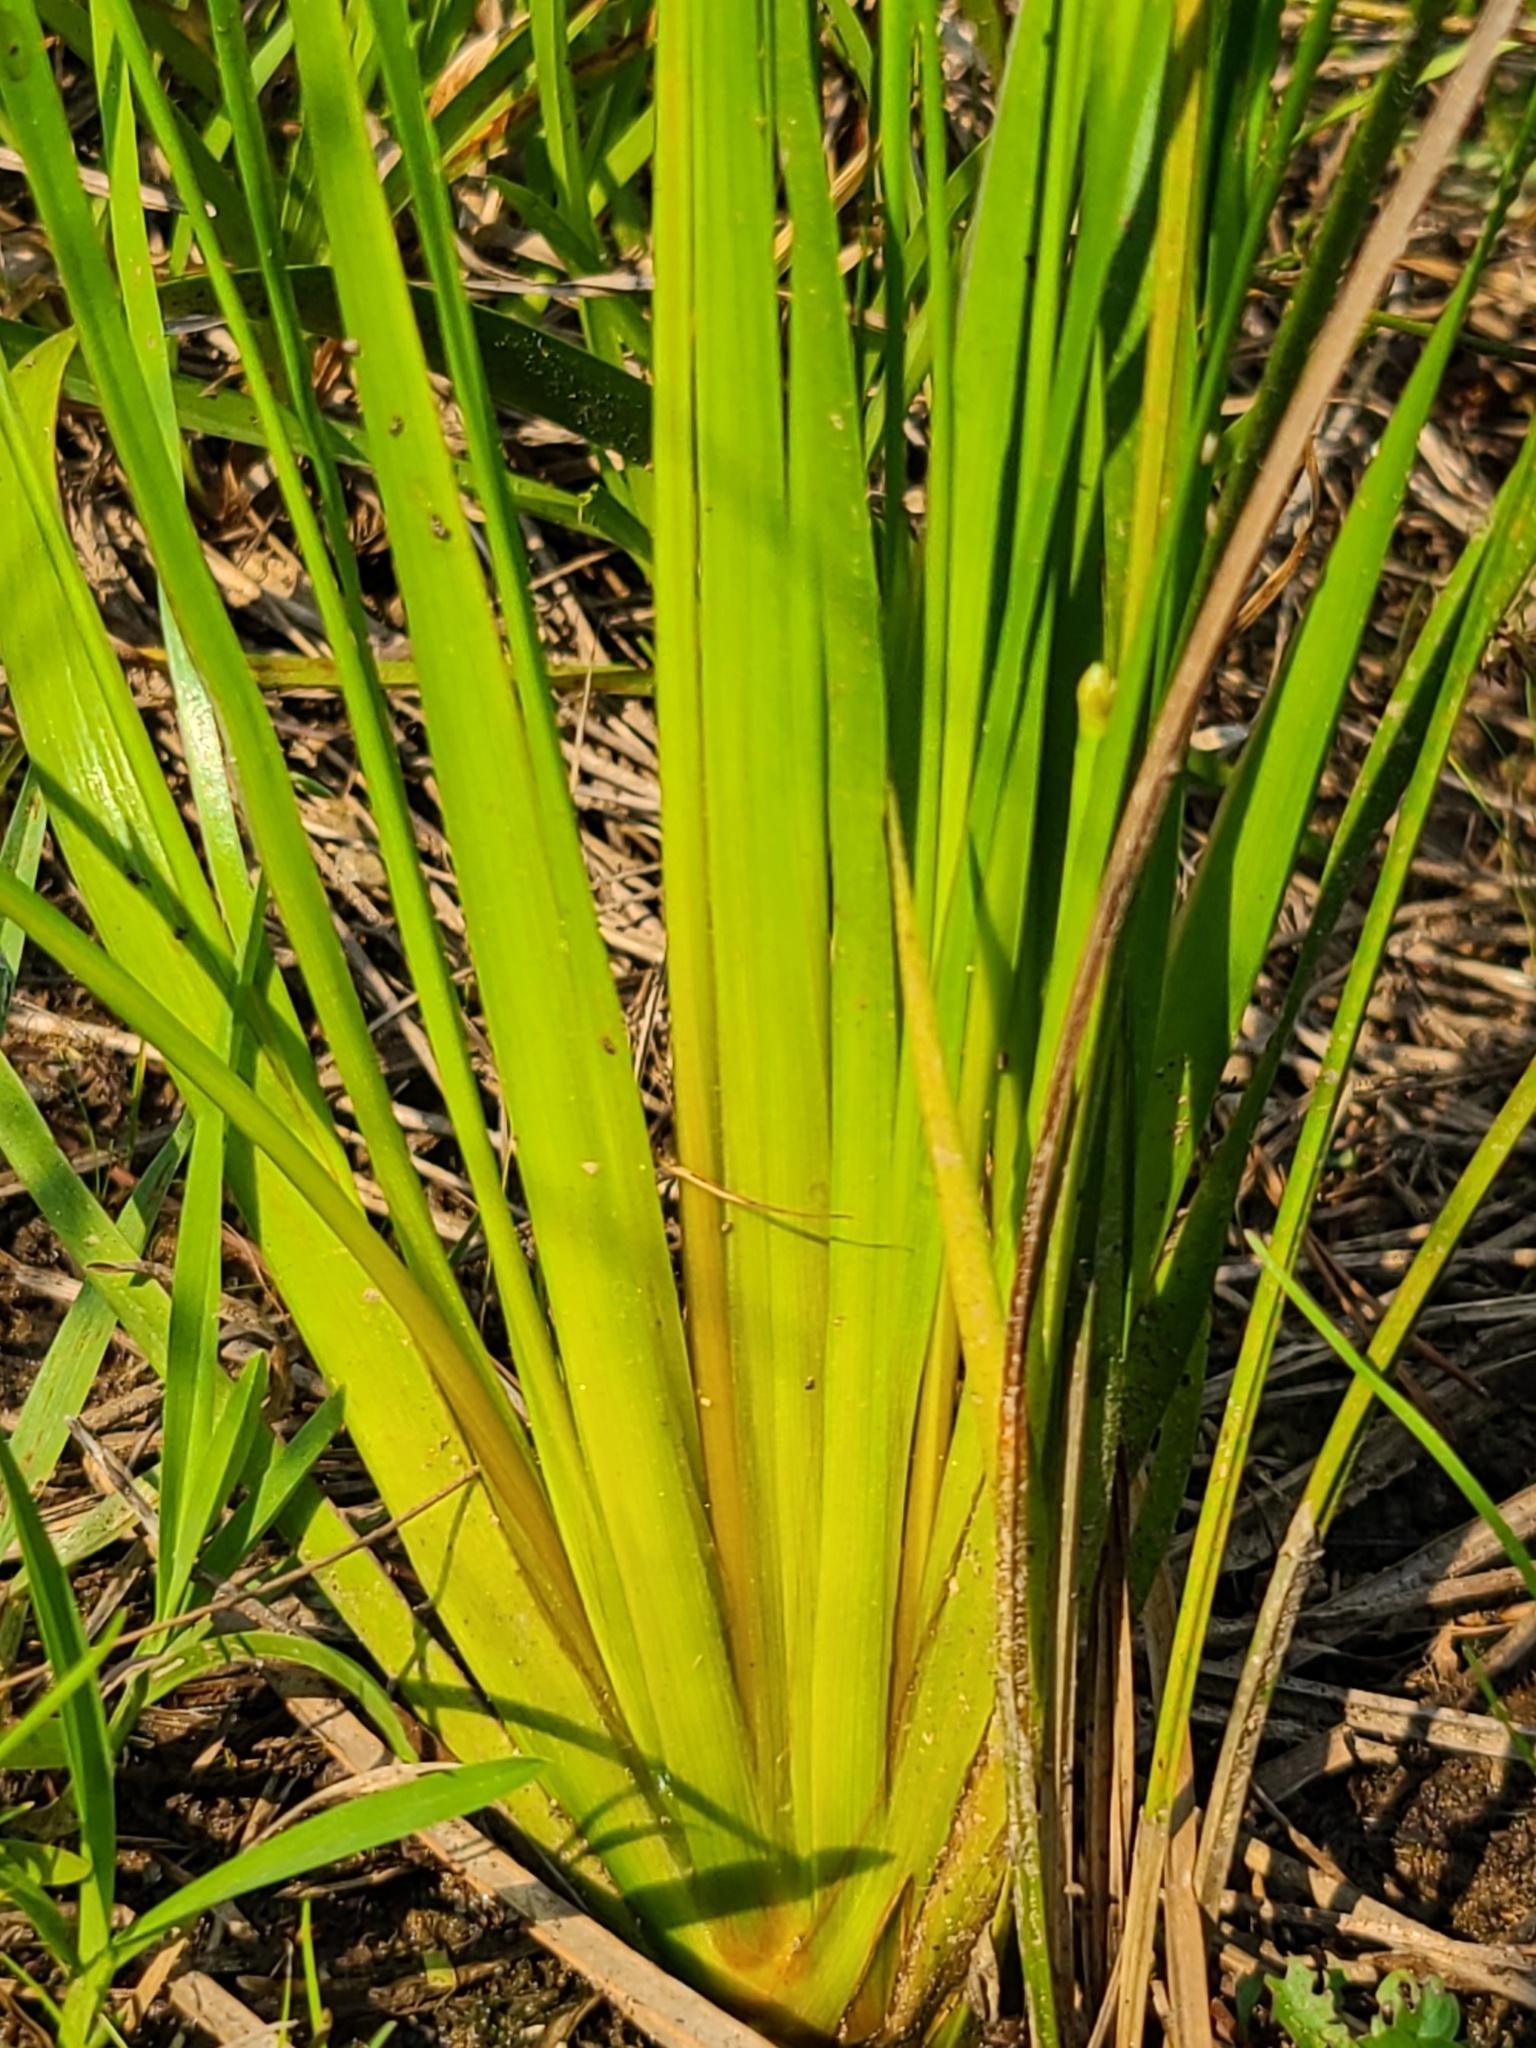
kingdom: Plantae
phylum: Tracheophyta
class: Liliopsida
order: Poales
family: Xyridaceae
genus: Xyris
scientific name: Xyris difformis
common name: Bog yellow-eyed-grass
